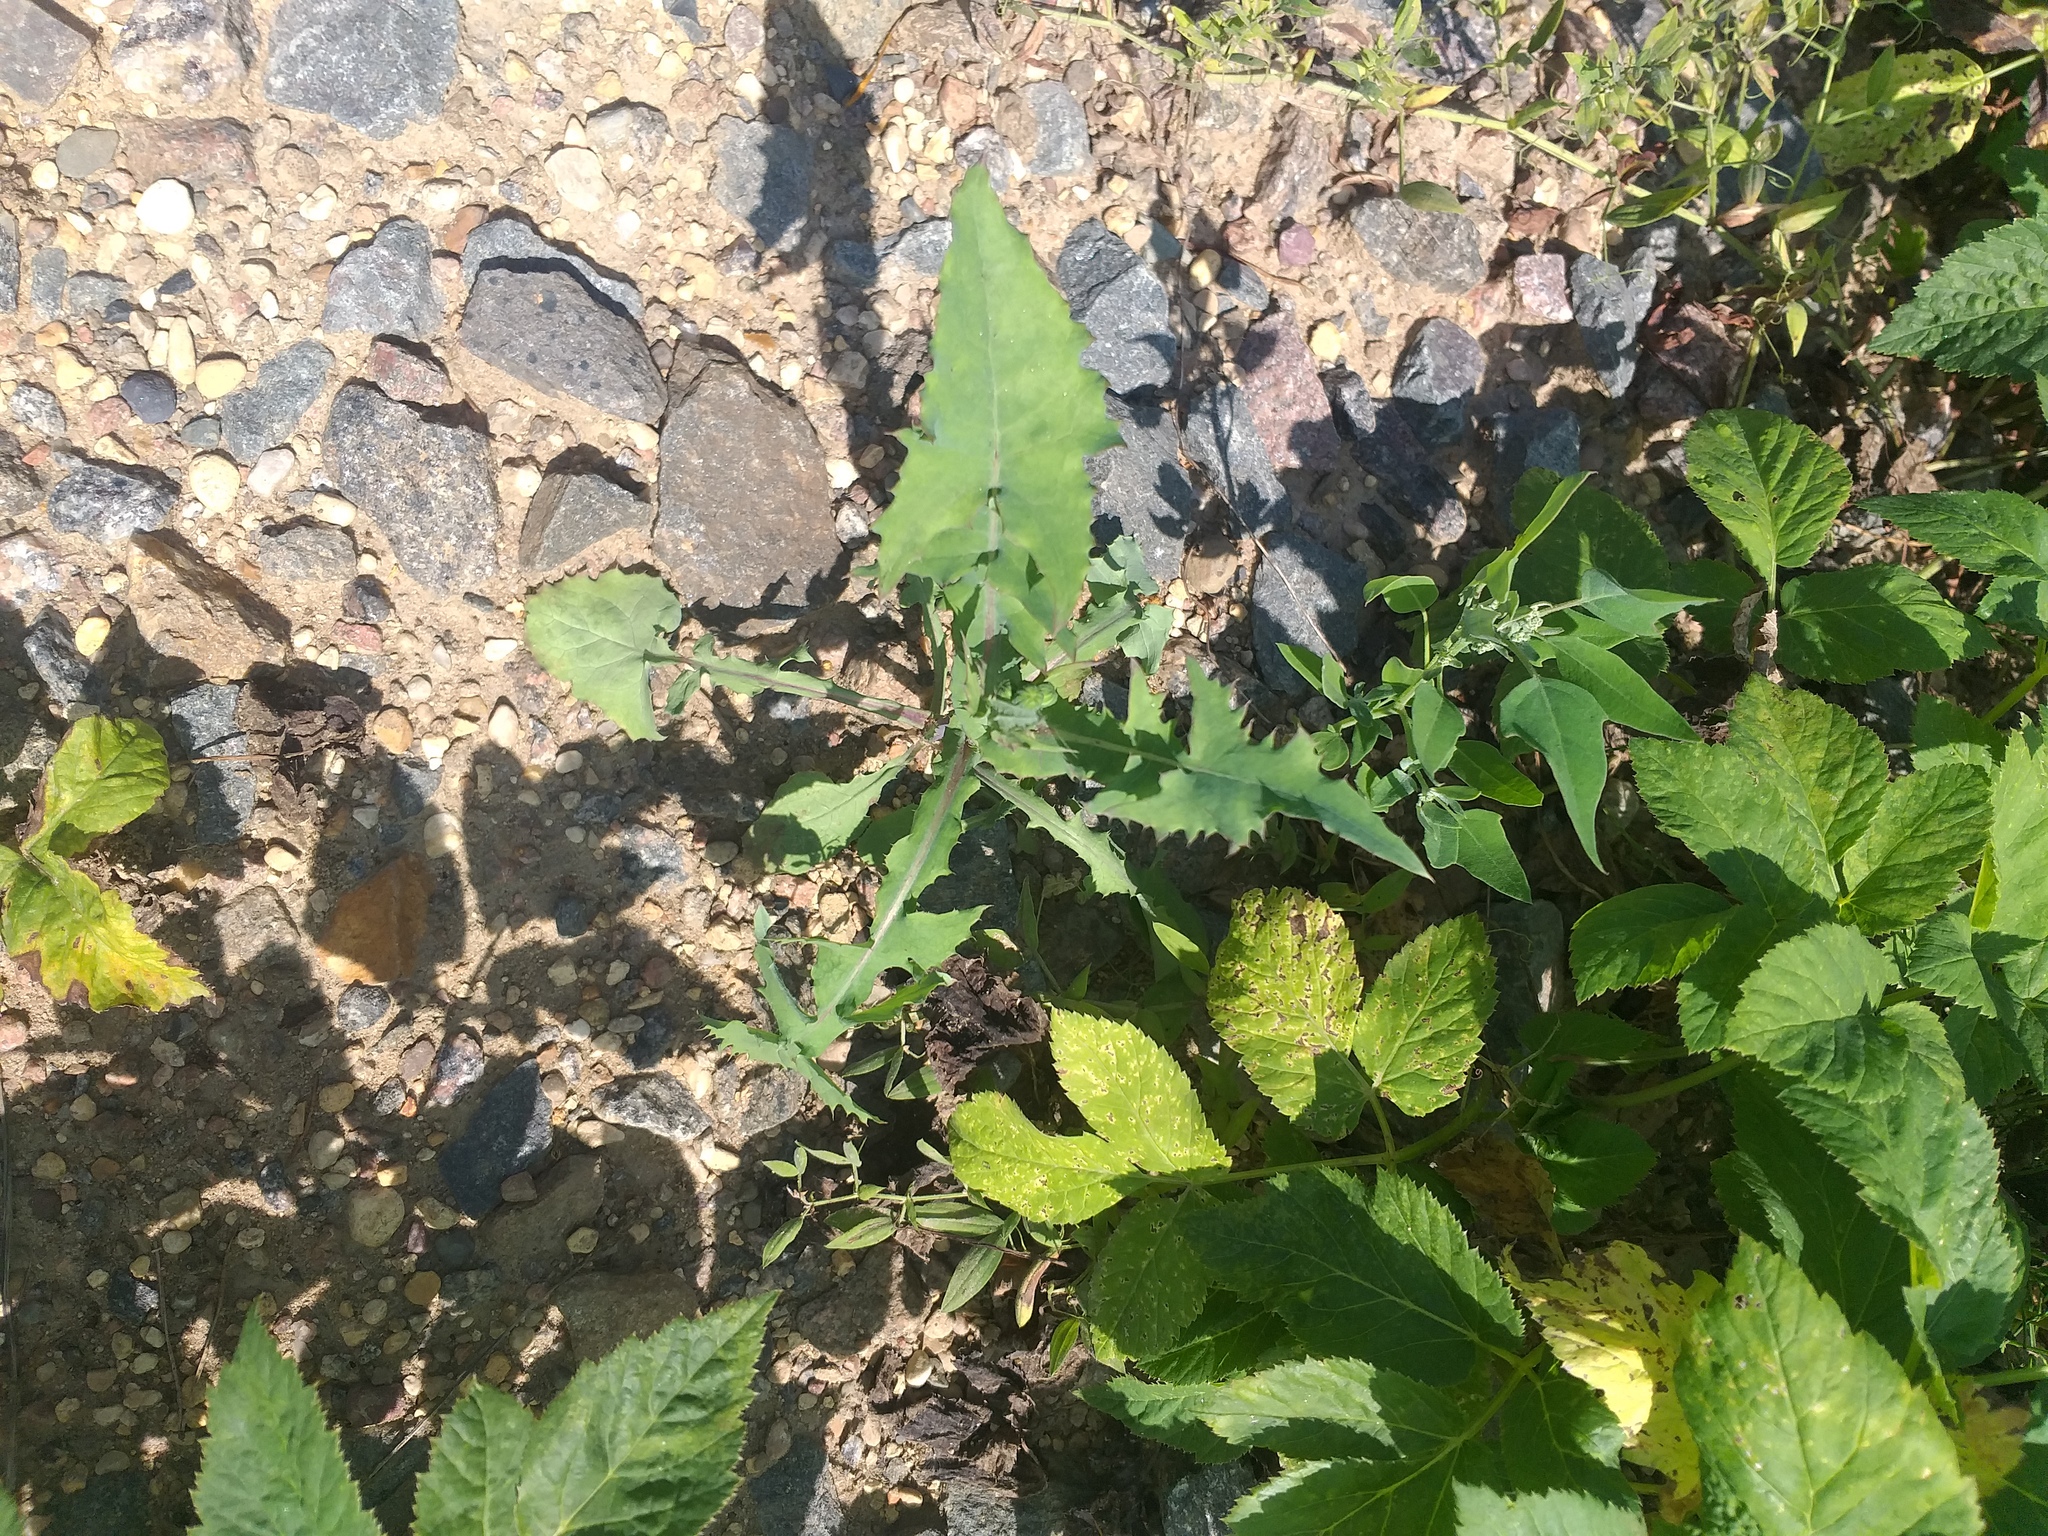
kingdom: Plantae
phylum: Tracheophyta
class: Magnoliopsida
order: Asterales
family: Asteraceae
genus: Sonchus
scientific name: Sonchus oleraceus
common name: Common sowthistle
